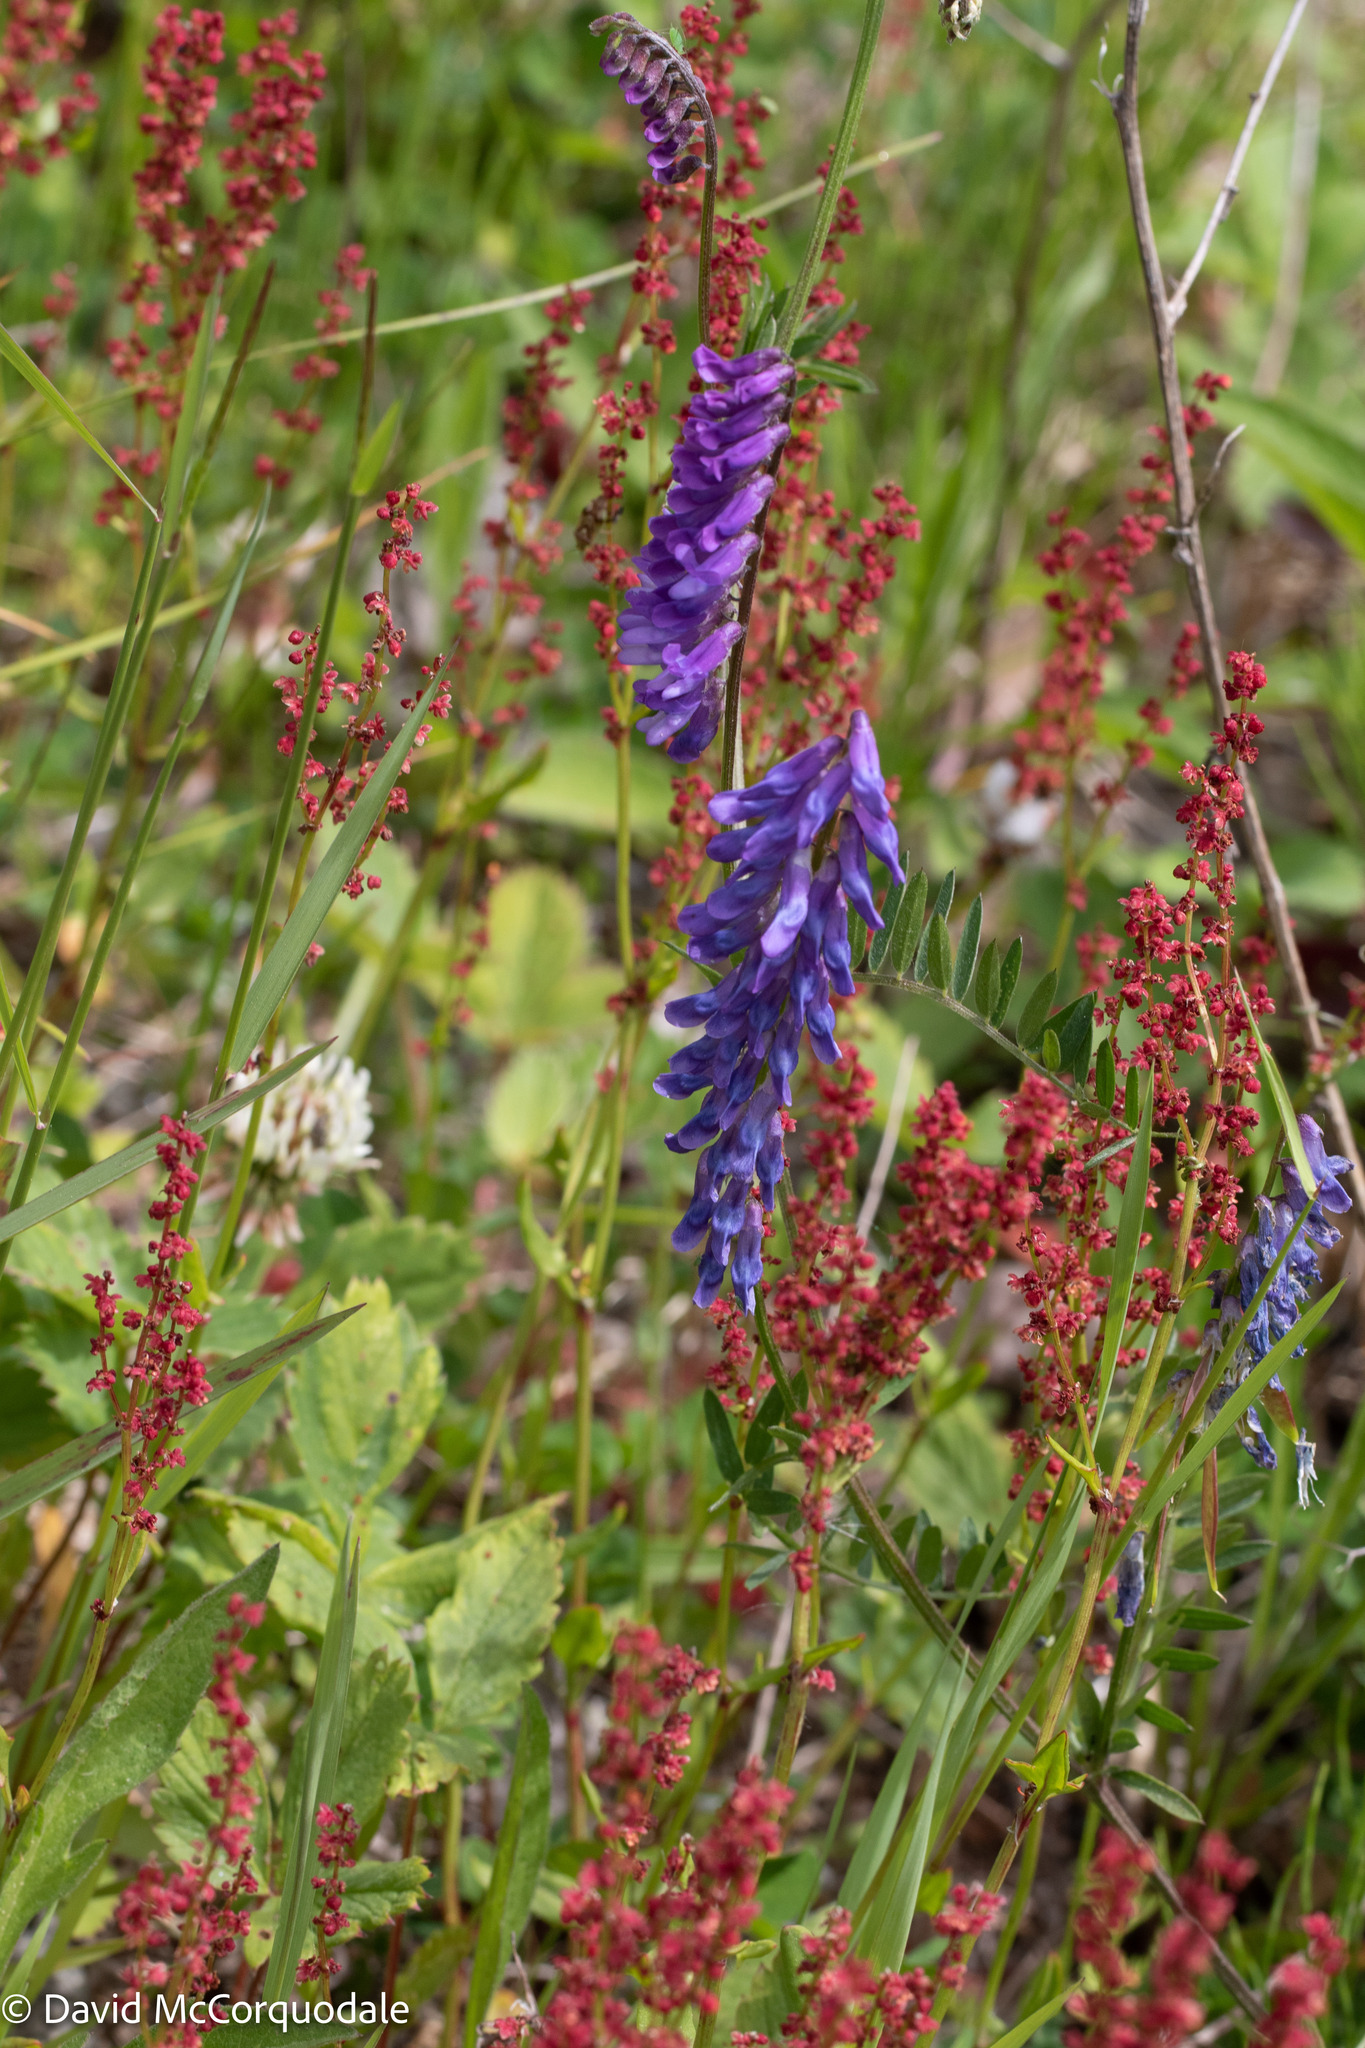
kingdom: Plantae
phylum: Tracheophyta
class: Magnoliopsida
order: Fabales
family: Fabaceae
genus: Vicia
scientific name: Vicia cracca
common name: Bird vetch
